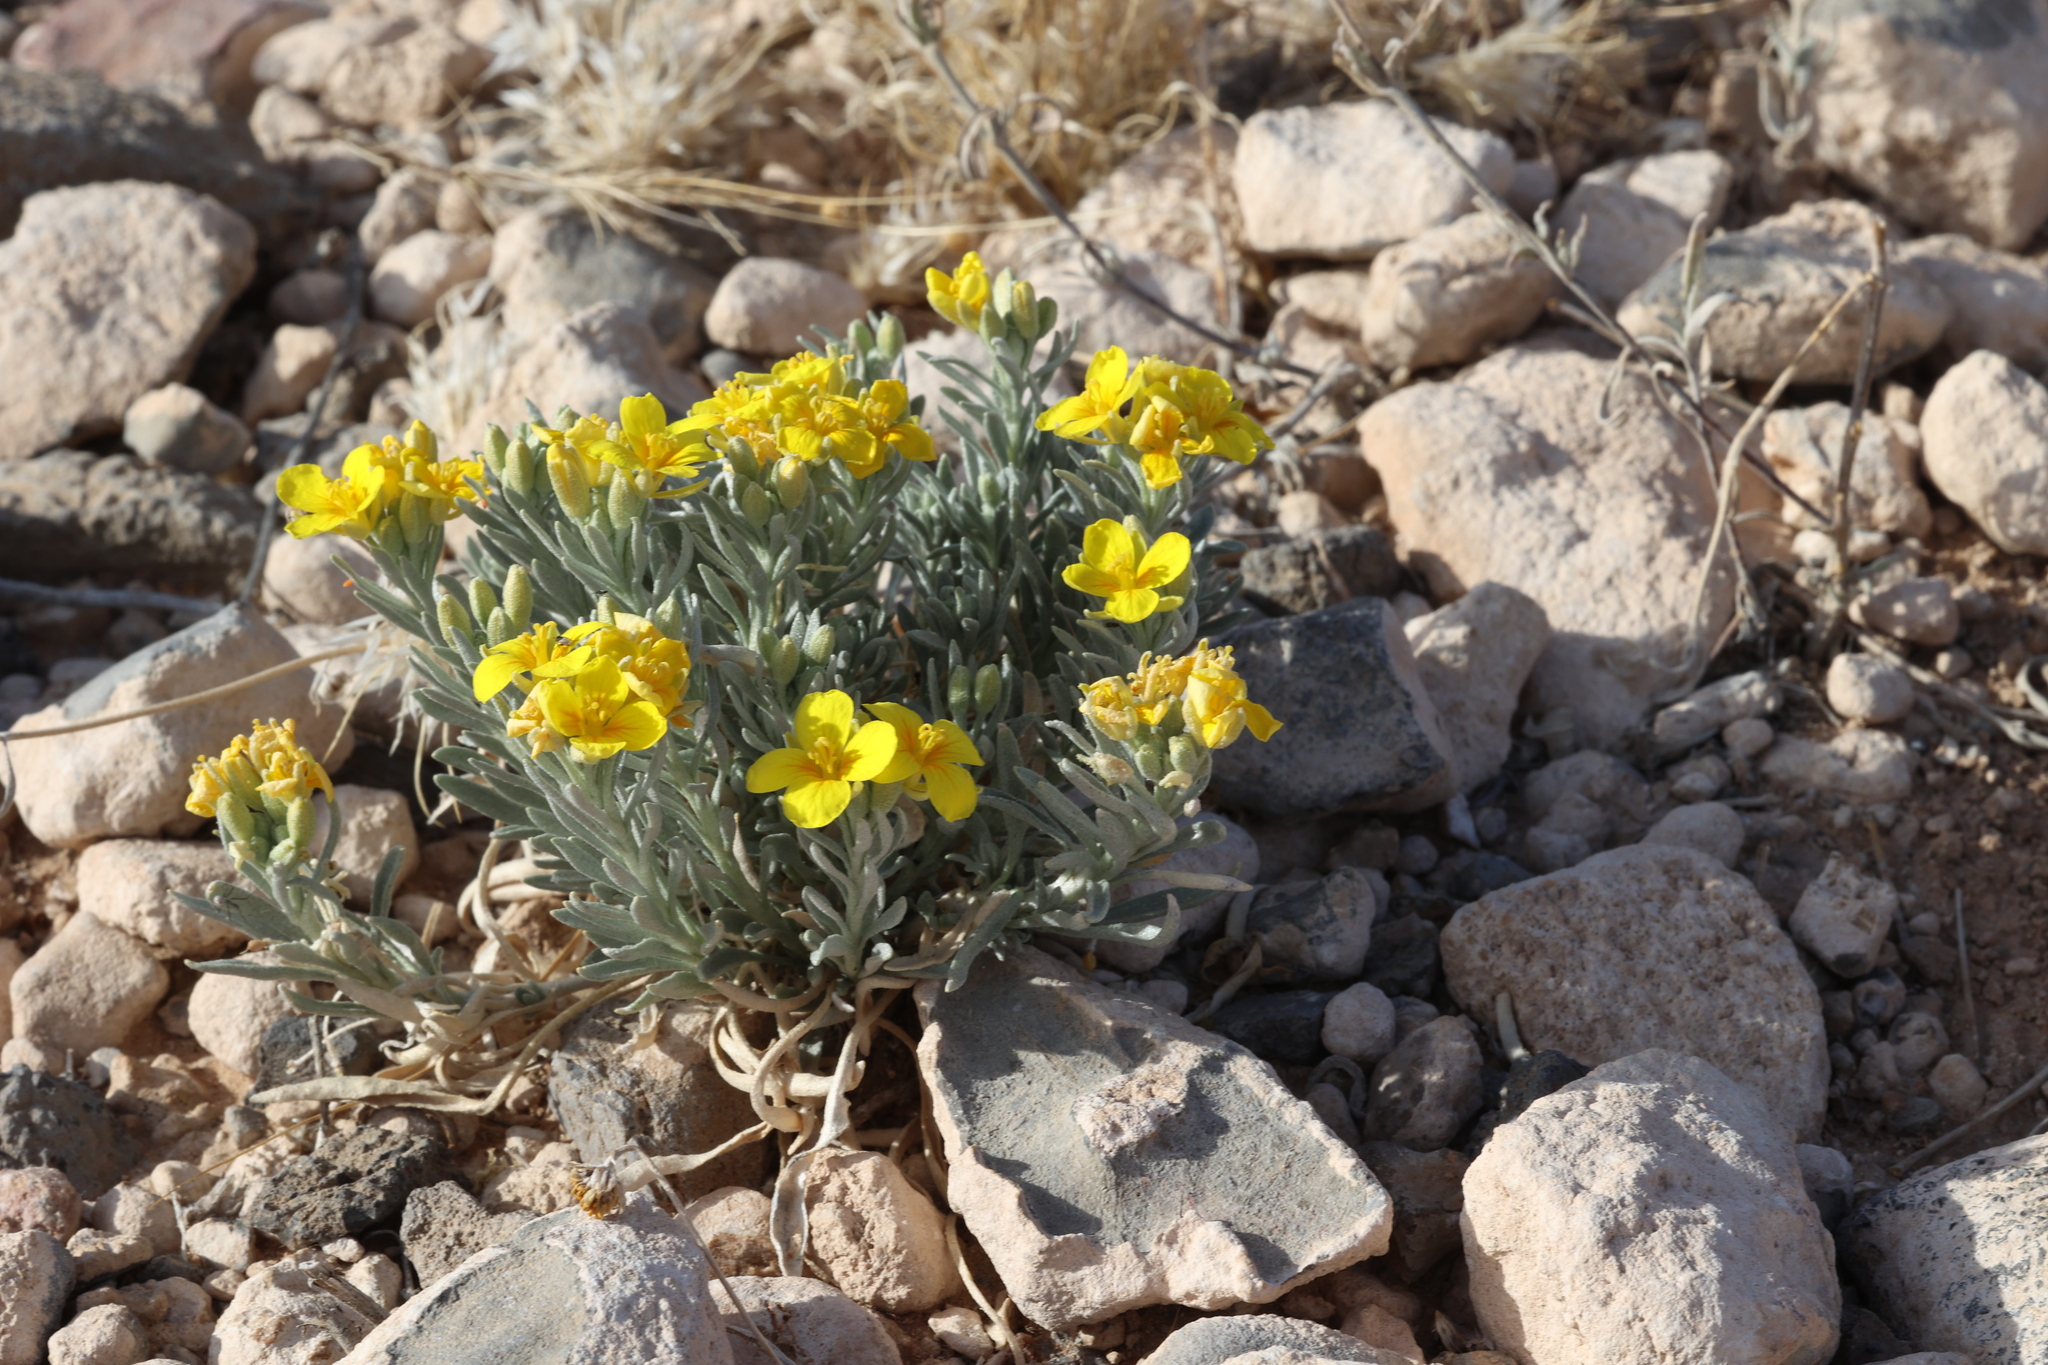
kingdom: Plantae
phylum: Tracheophyta
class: Magnoliopsida
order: Brassicales
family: Brassicaceae
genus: Physaria
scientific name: Physaria fendleri
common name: Fendler's bladderpod
